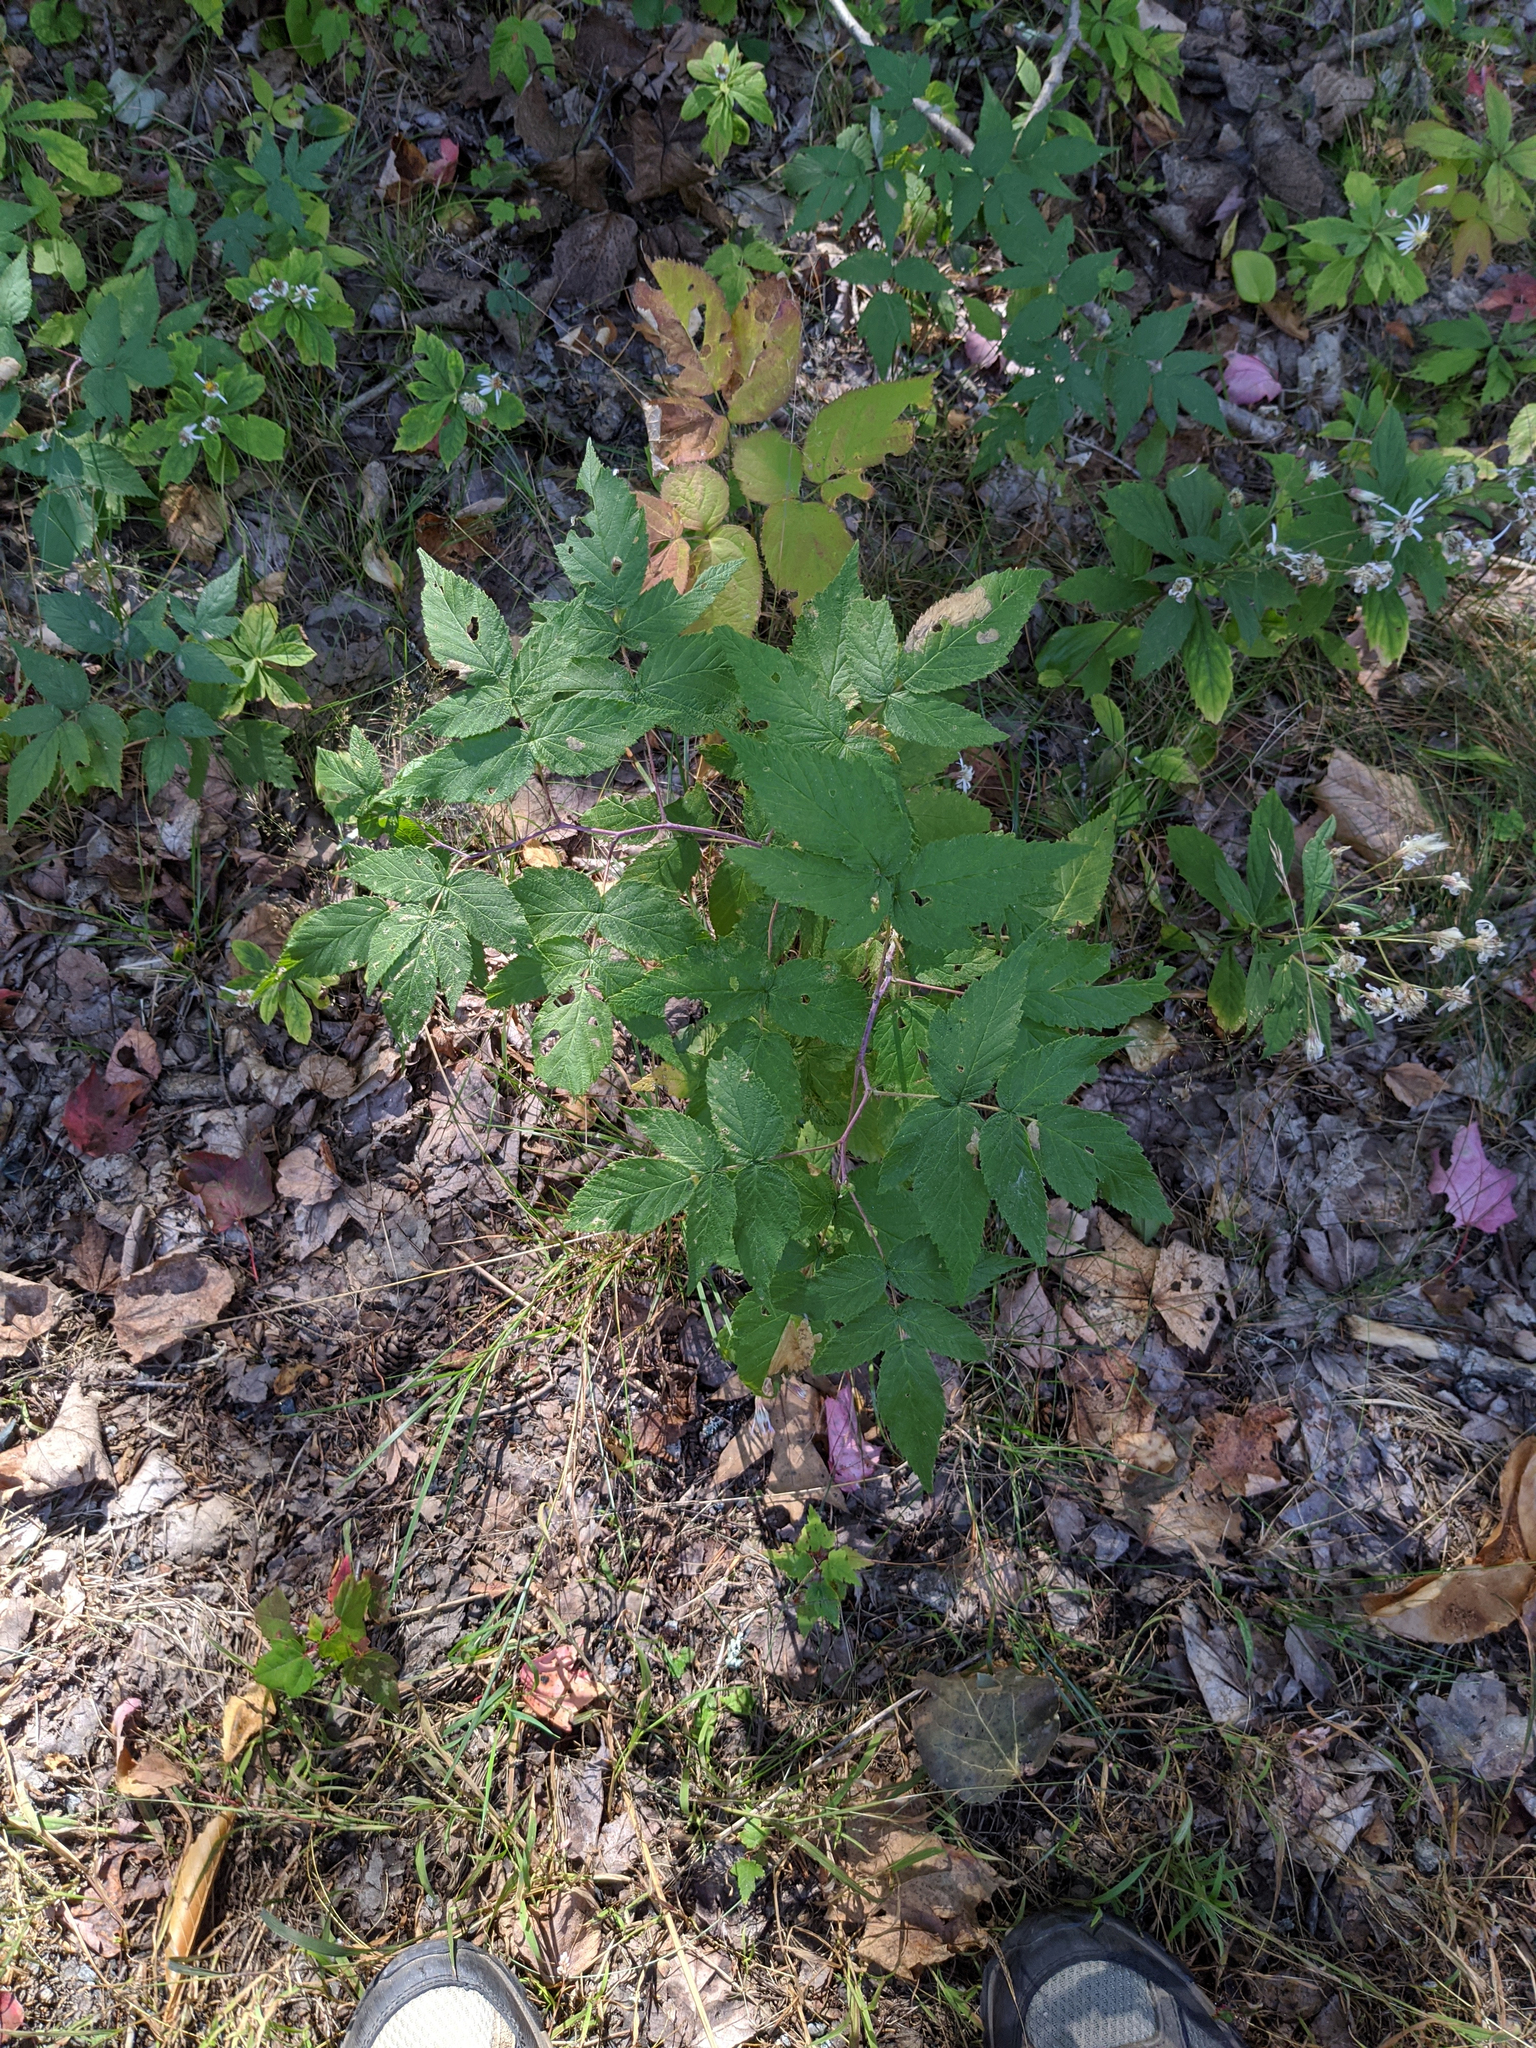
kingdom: Plantae
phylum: Tracheophyta
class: Magnoliopsida
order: Rosales
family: Rosaceae
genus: Rubus
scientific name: Rubus idaeus
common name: Raspberry
